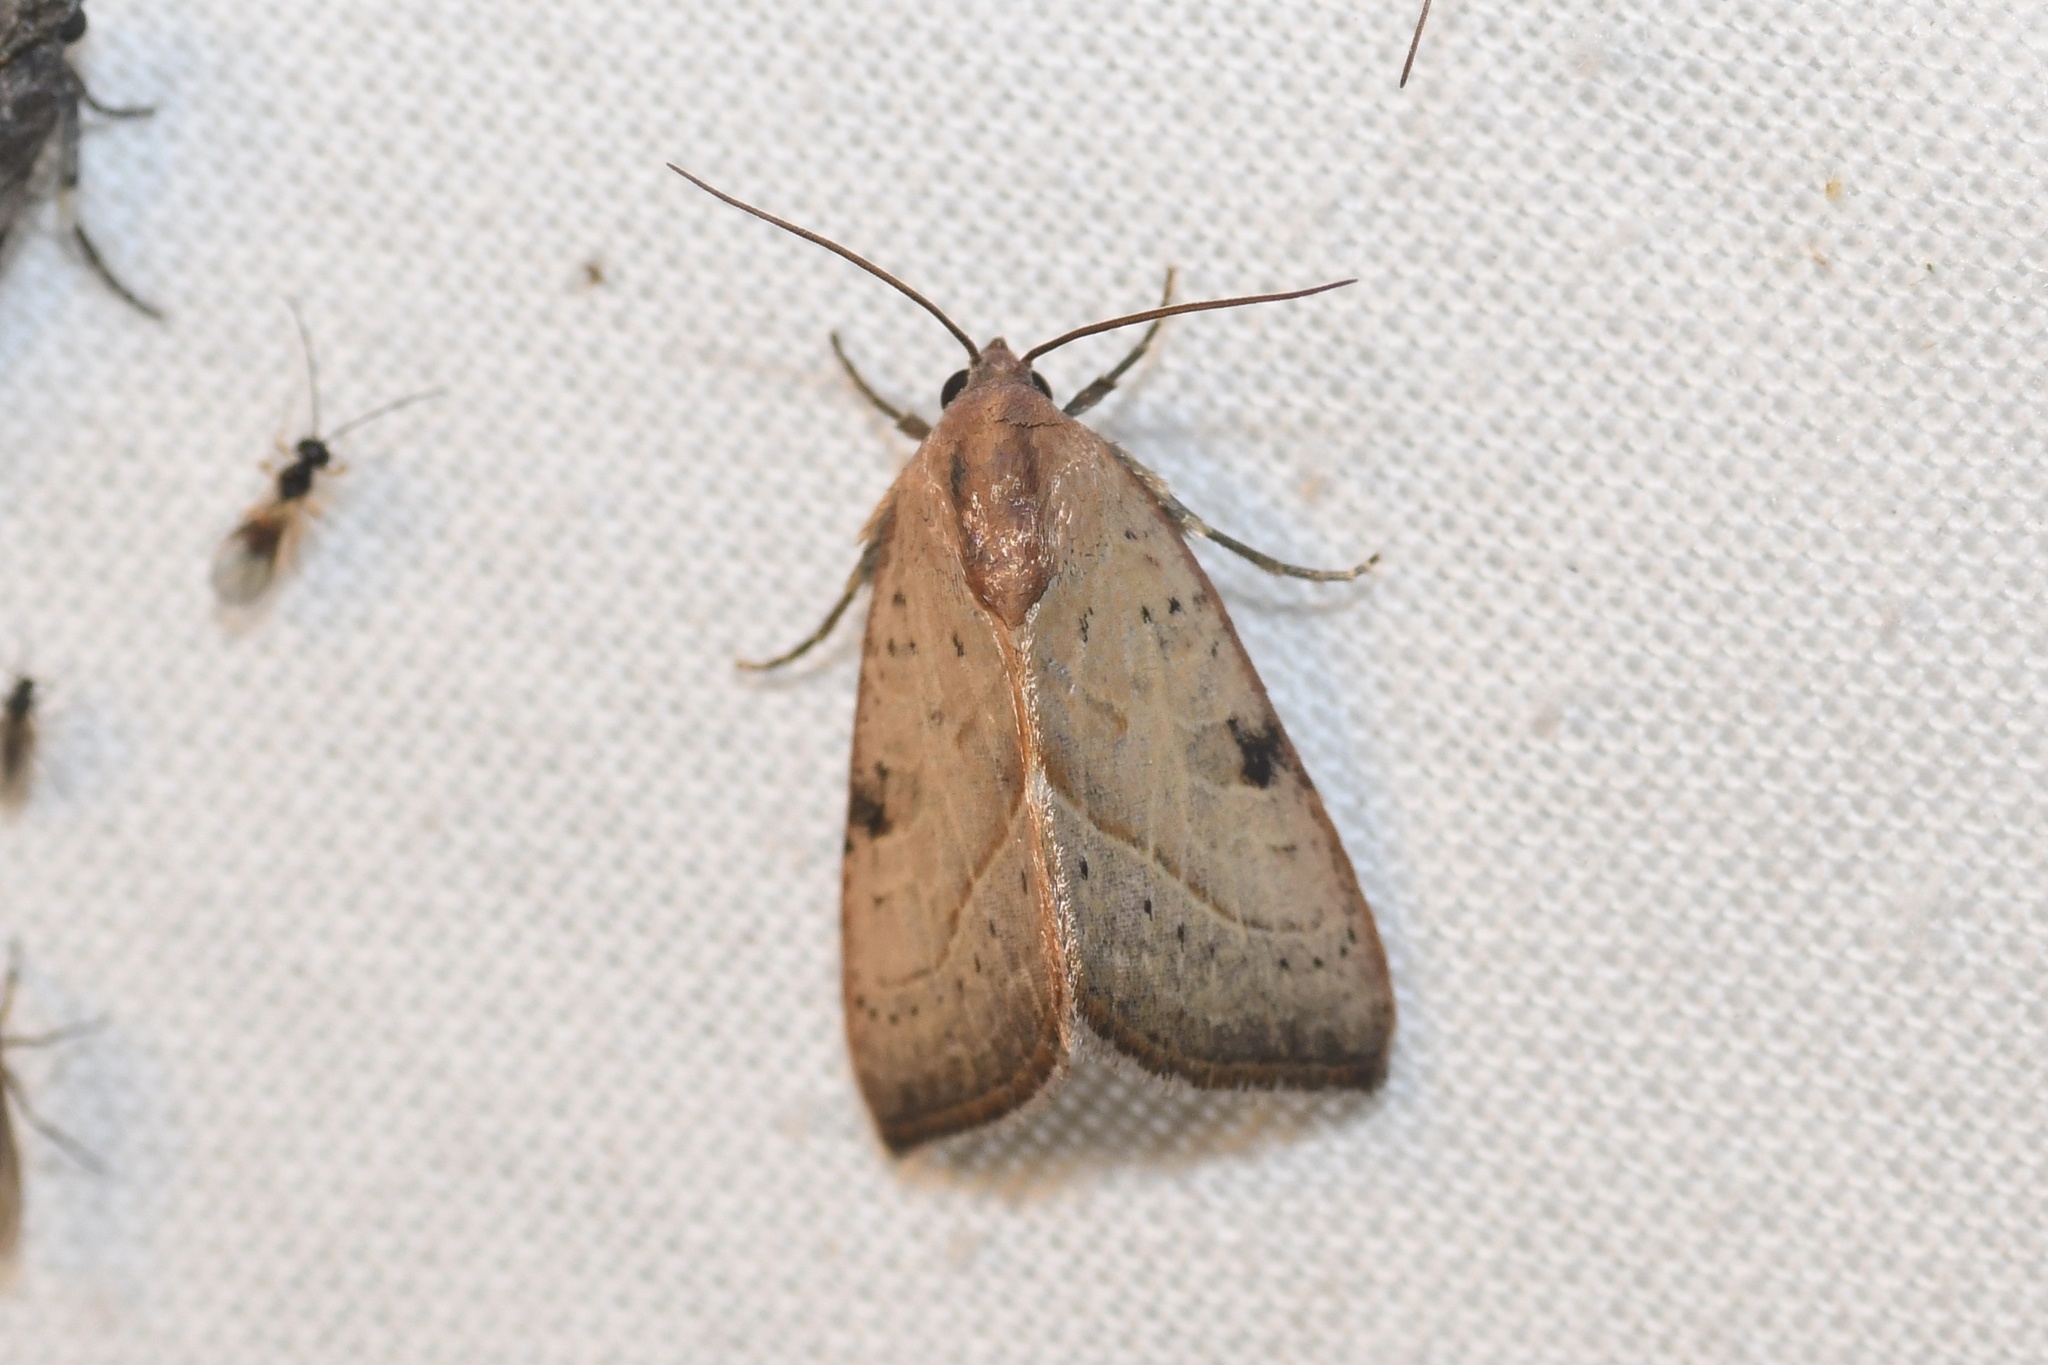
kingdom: Animalia
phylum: Arthropoda
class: Insecta
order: Lepidoptera
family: Noctuidae
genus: Galgula
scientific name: Galgula partita
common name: Wedgeling
